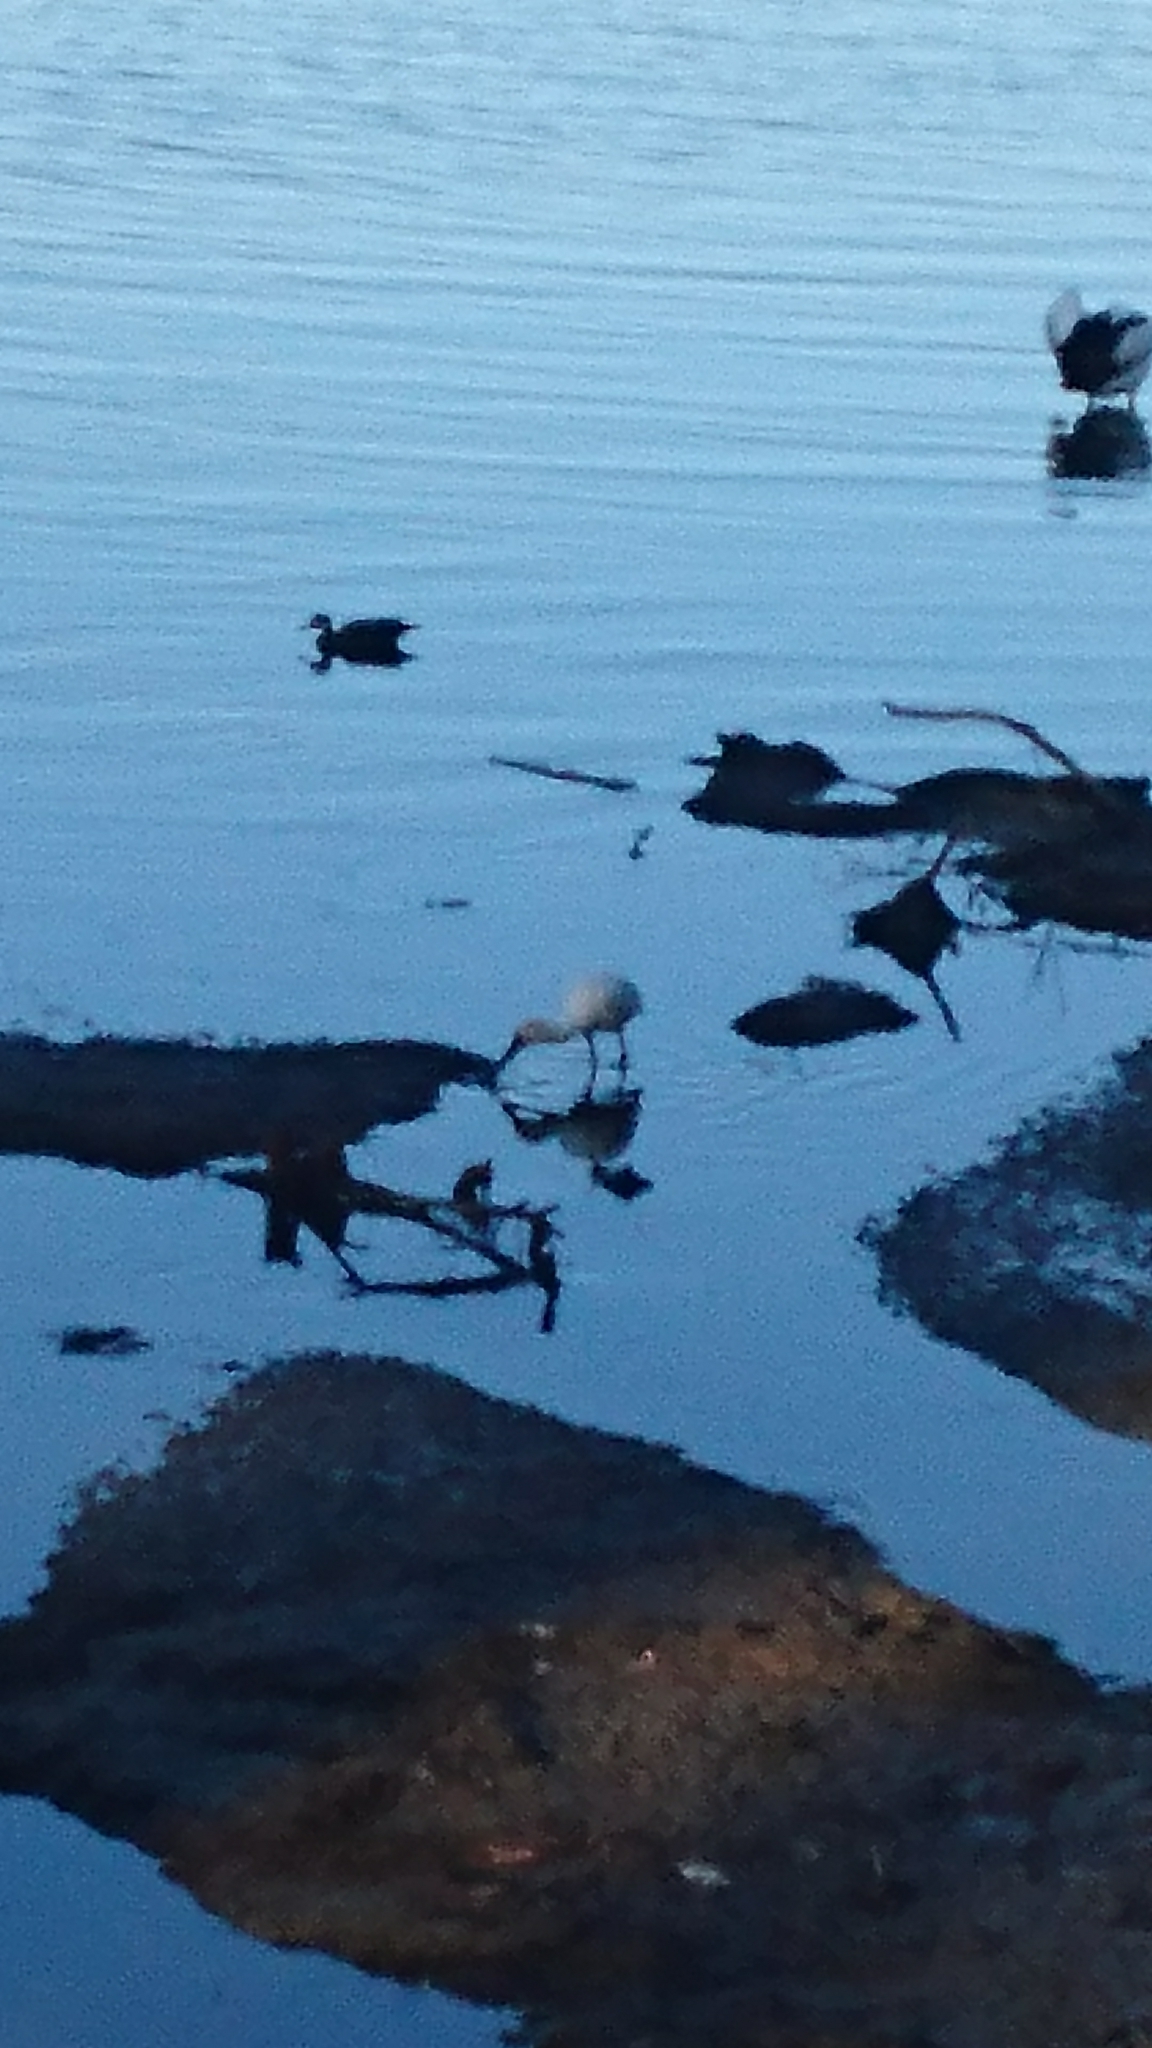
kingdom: Animalia
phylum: Chordata
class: Aves
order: Pelecaniformes
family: Threskiornithidae
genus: Platalea
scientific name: Platalea regia
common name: Royal spoonbill
